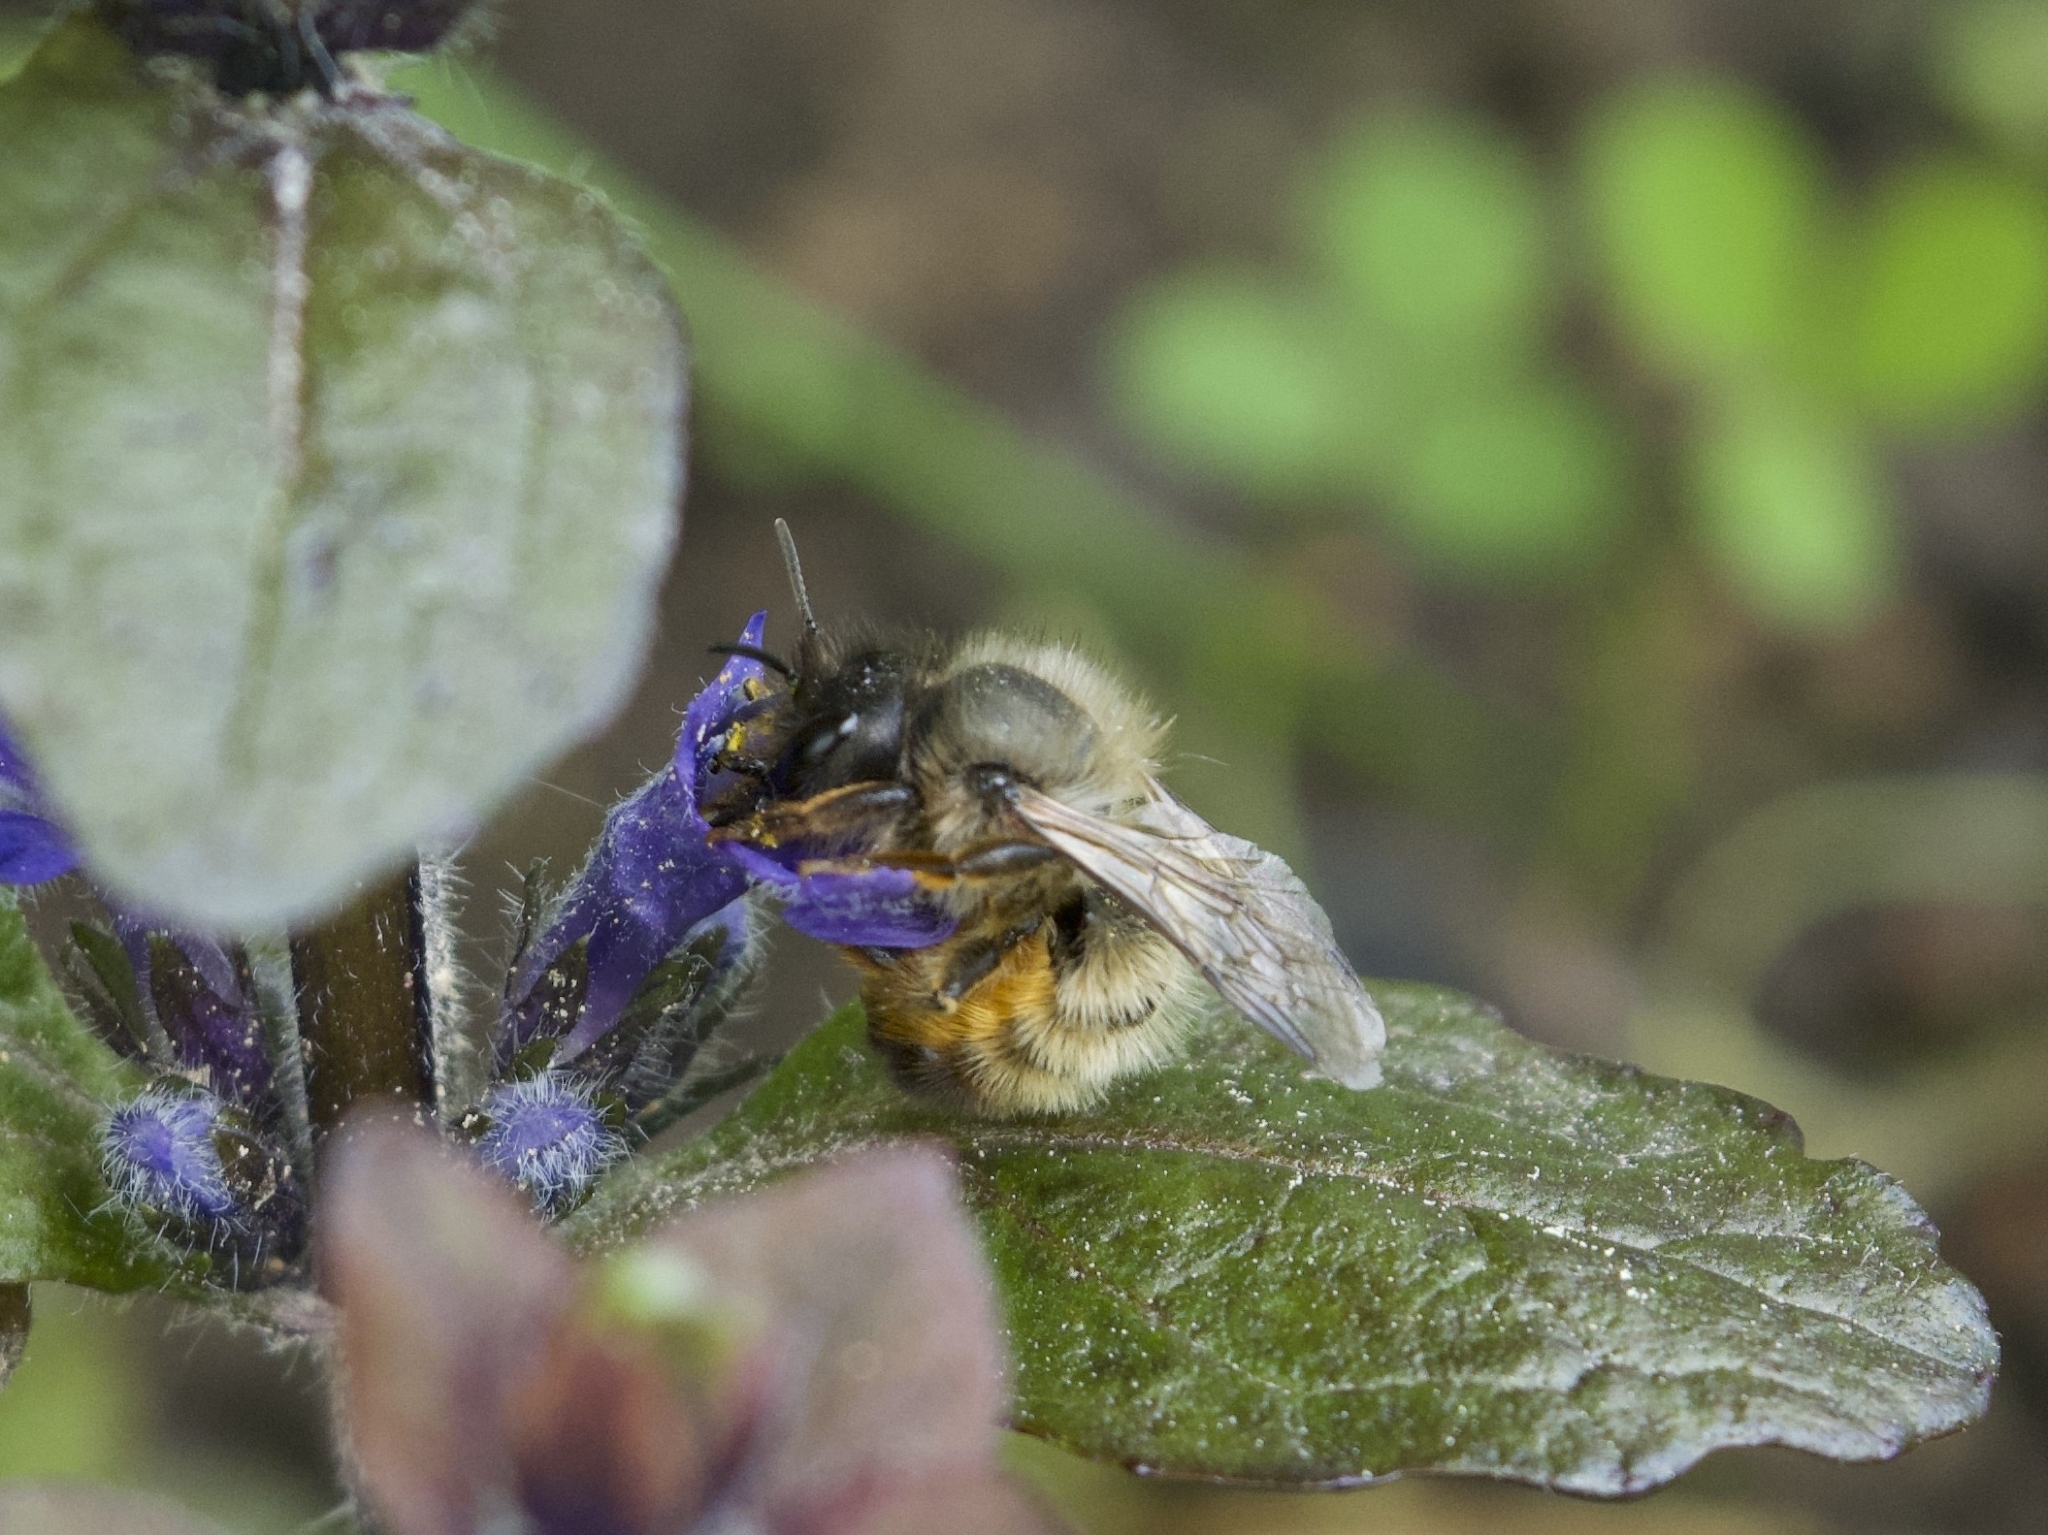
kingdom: Animalia
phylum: Arthropoda
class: Insecta
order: Hymenoptera
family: Megachilidae
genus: Osmia
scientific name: Osmia bicornis
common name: Red mason bee
